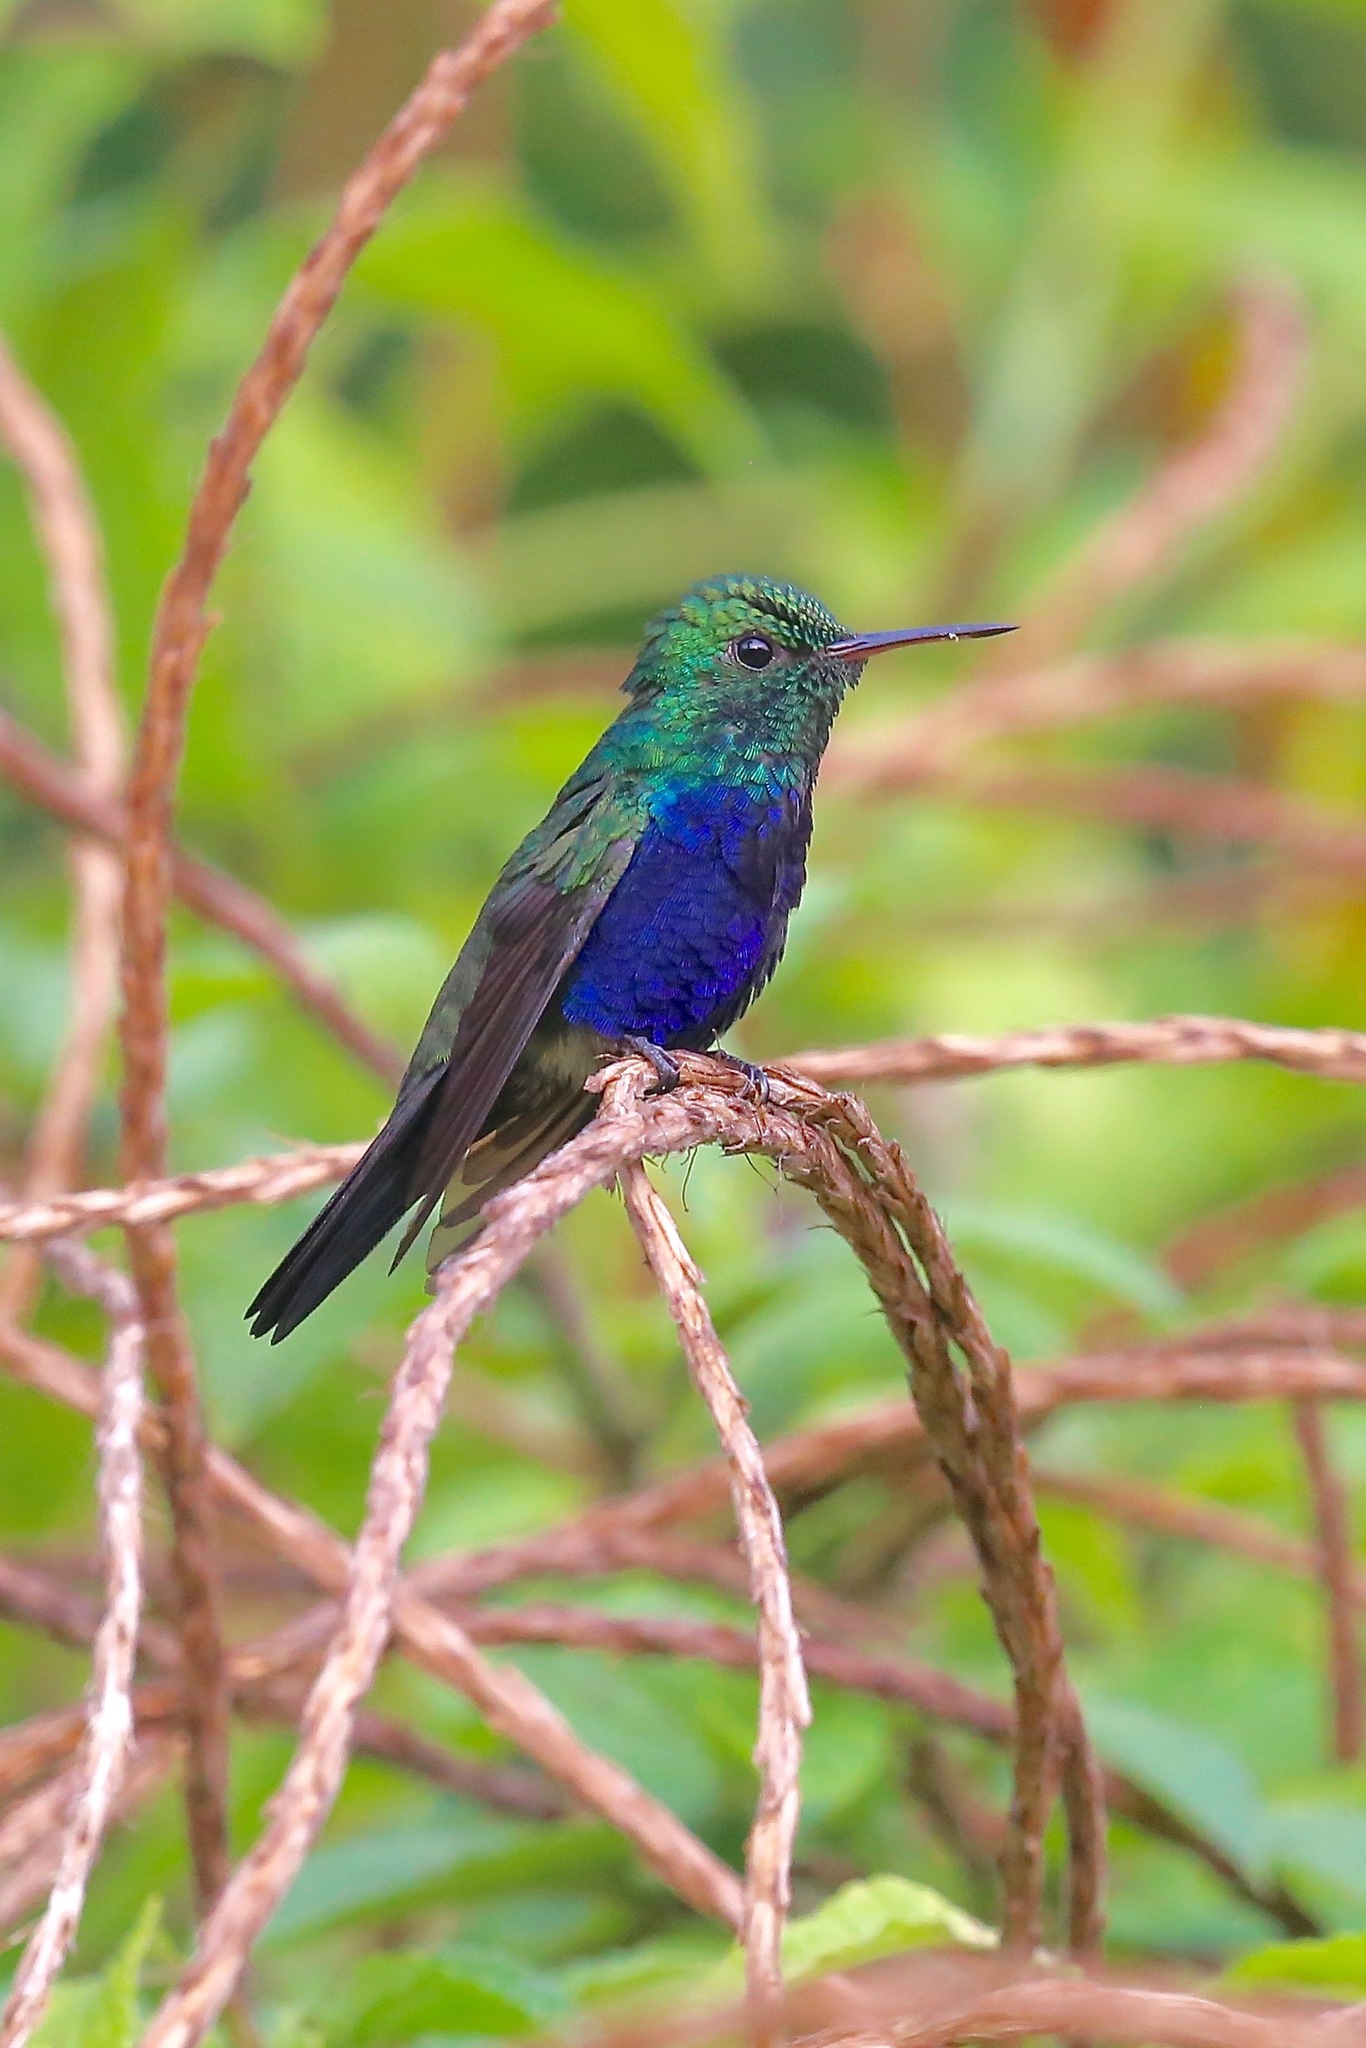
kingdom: Animalia
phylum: Chordata
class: Aves
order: Apodiformes
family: Trochilidae
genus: Chlorestes
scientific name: Chlorestes julie
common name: Violet-bellied hummingbird
